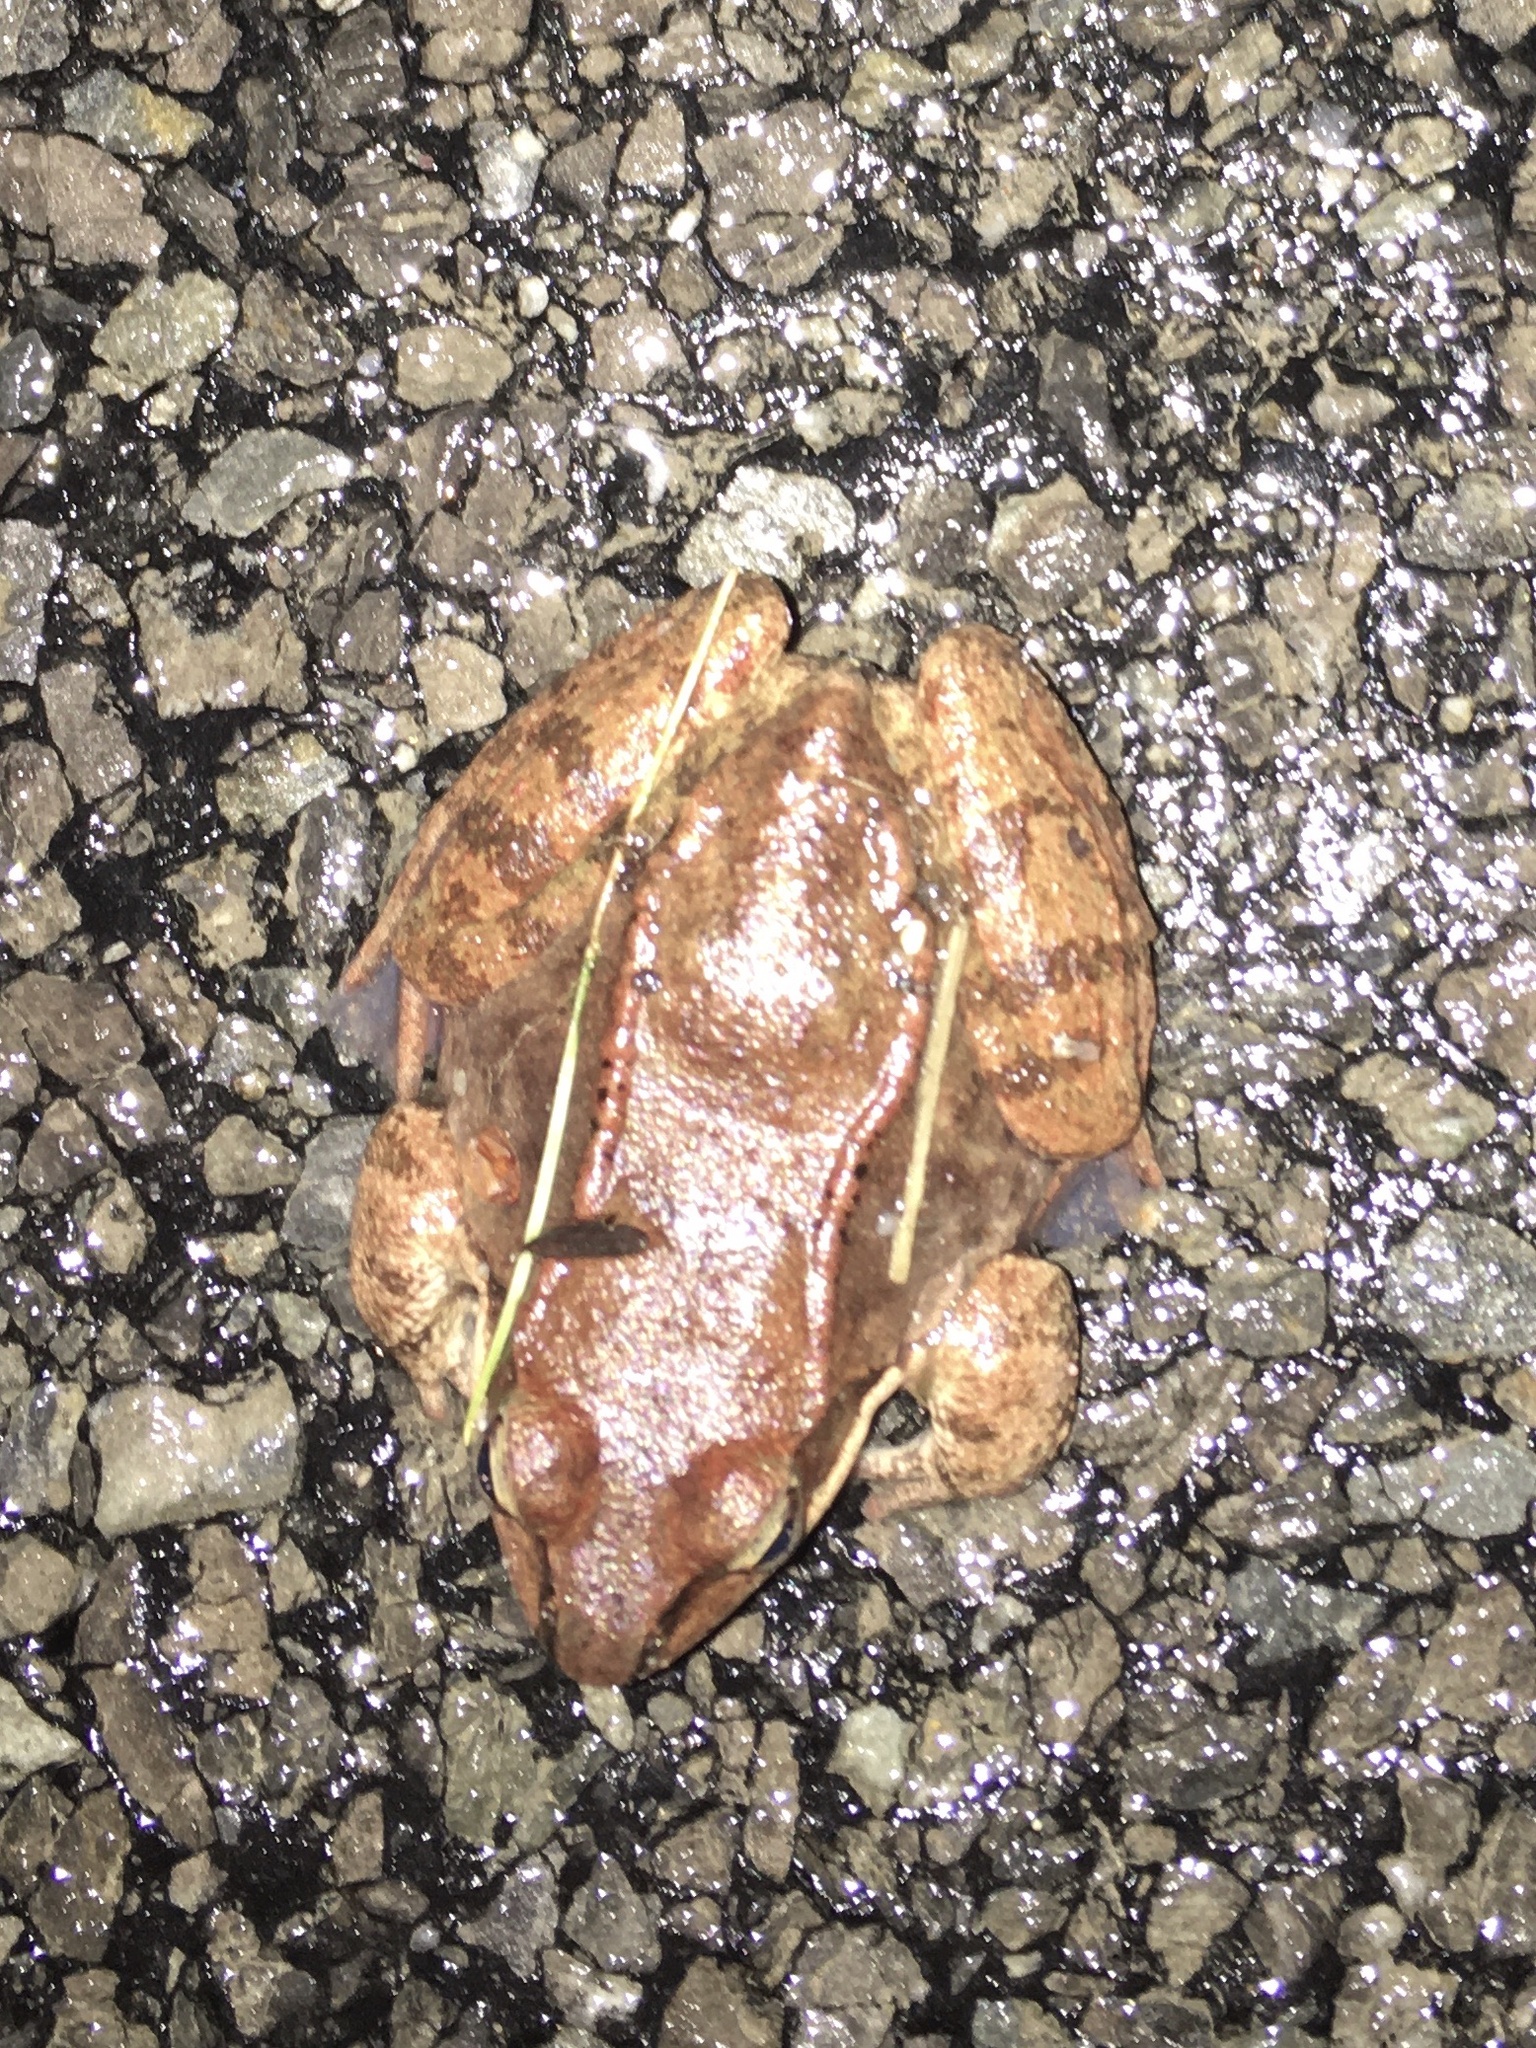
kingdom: Animalia
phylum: Chordata
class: Amphibia
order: Anura
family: Ranidae
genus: Lithobates
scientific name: Lithobates sylvaticus
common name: Wood frog
